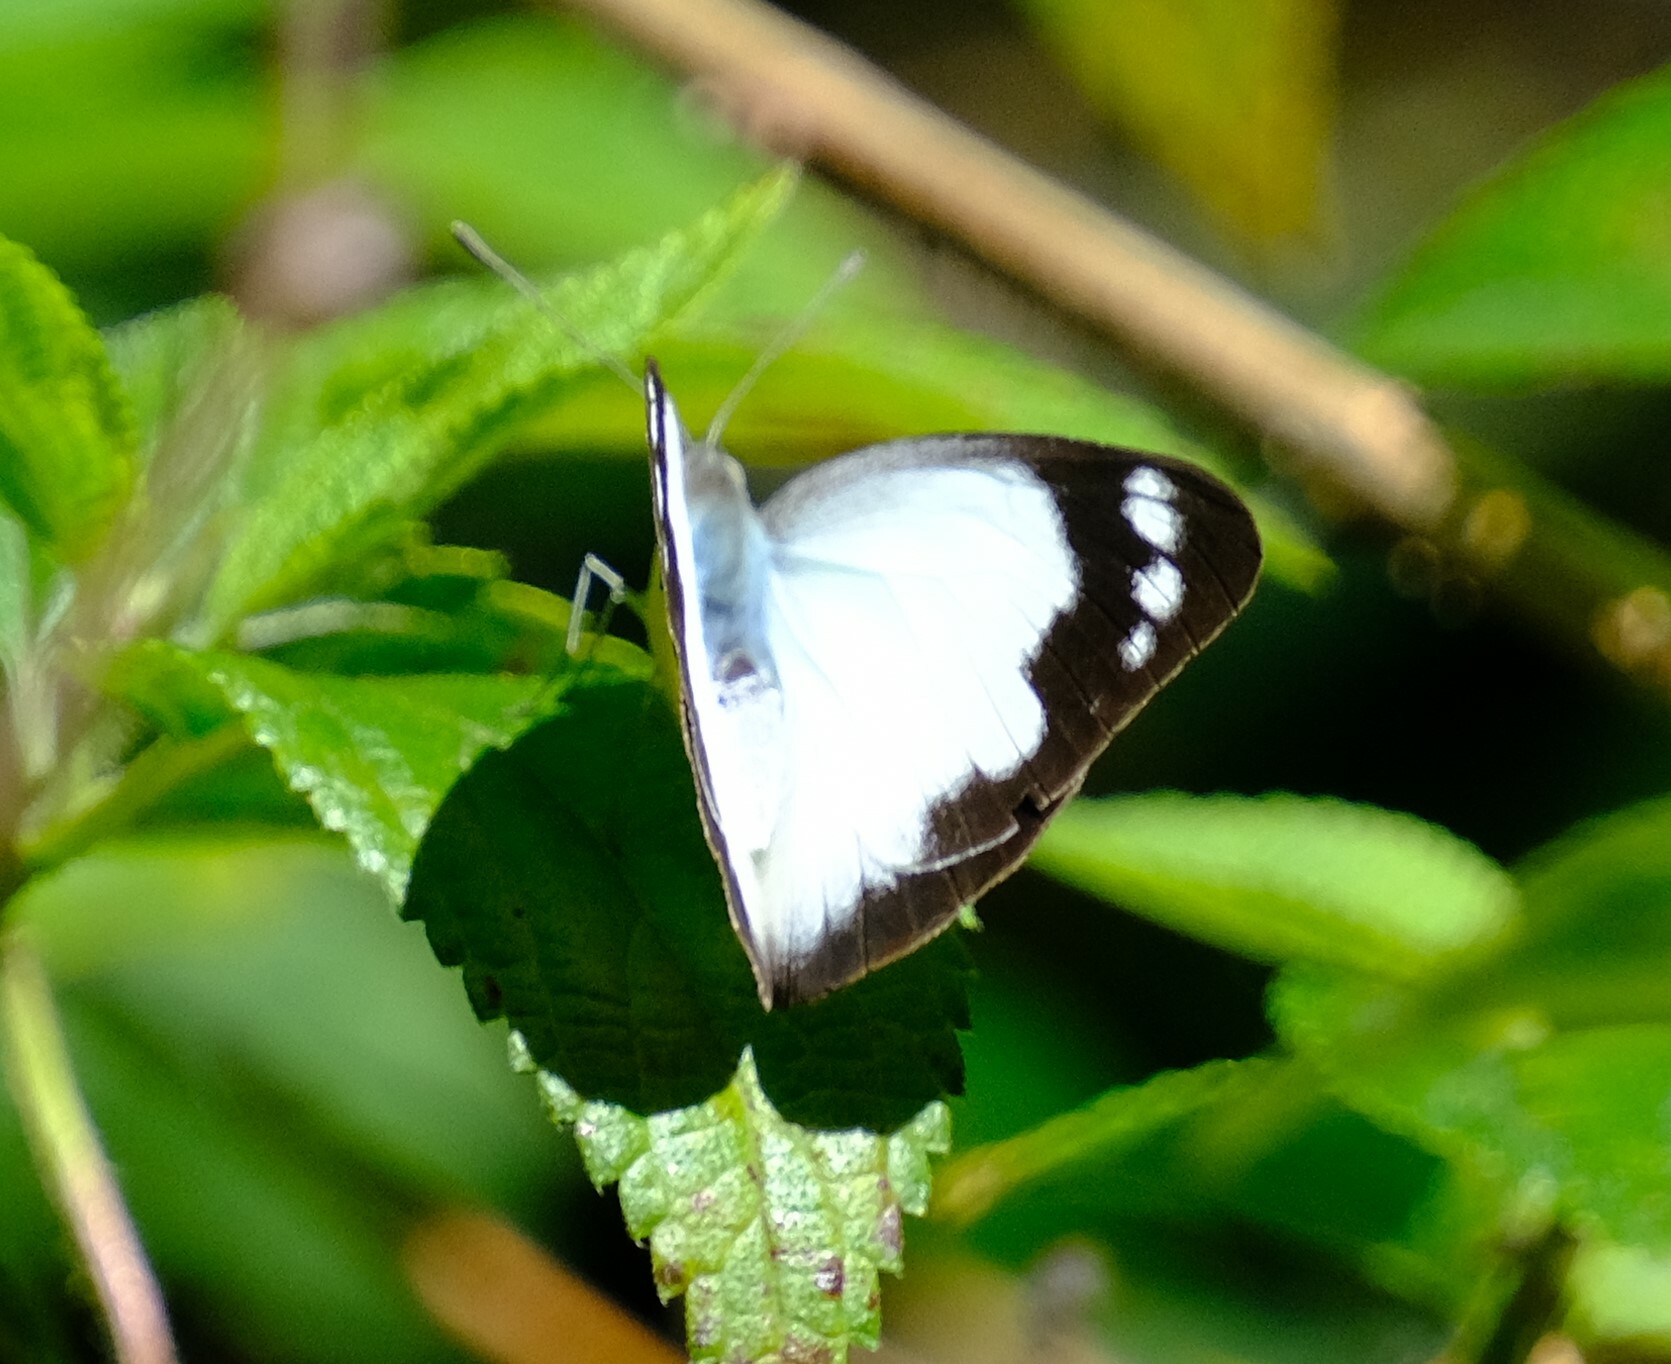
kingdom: Animalia
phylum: Arthropoda
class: Insecta
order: Lepidoptera
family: Pieridae
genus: Appias
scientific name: Appias paulina
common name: Ceylon lesser albatross
